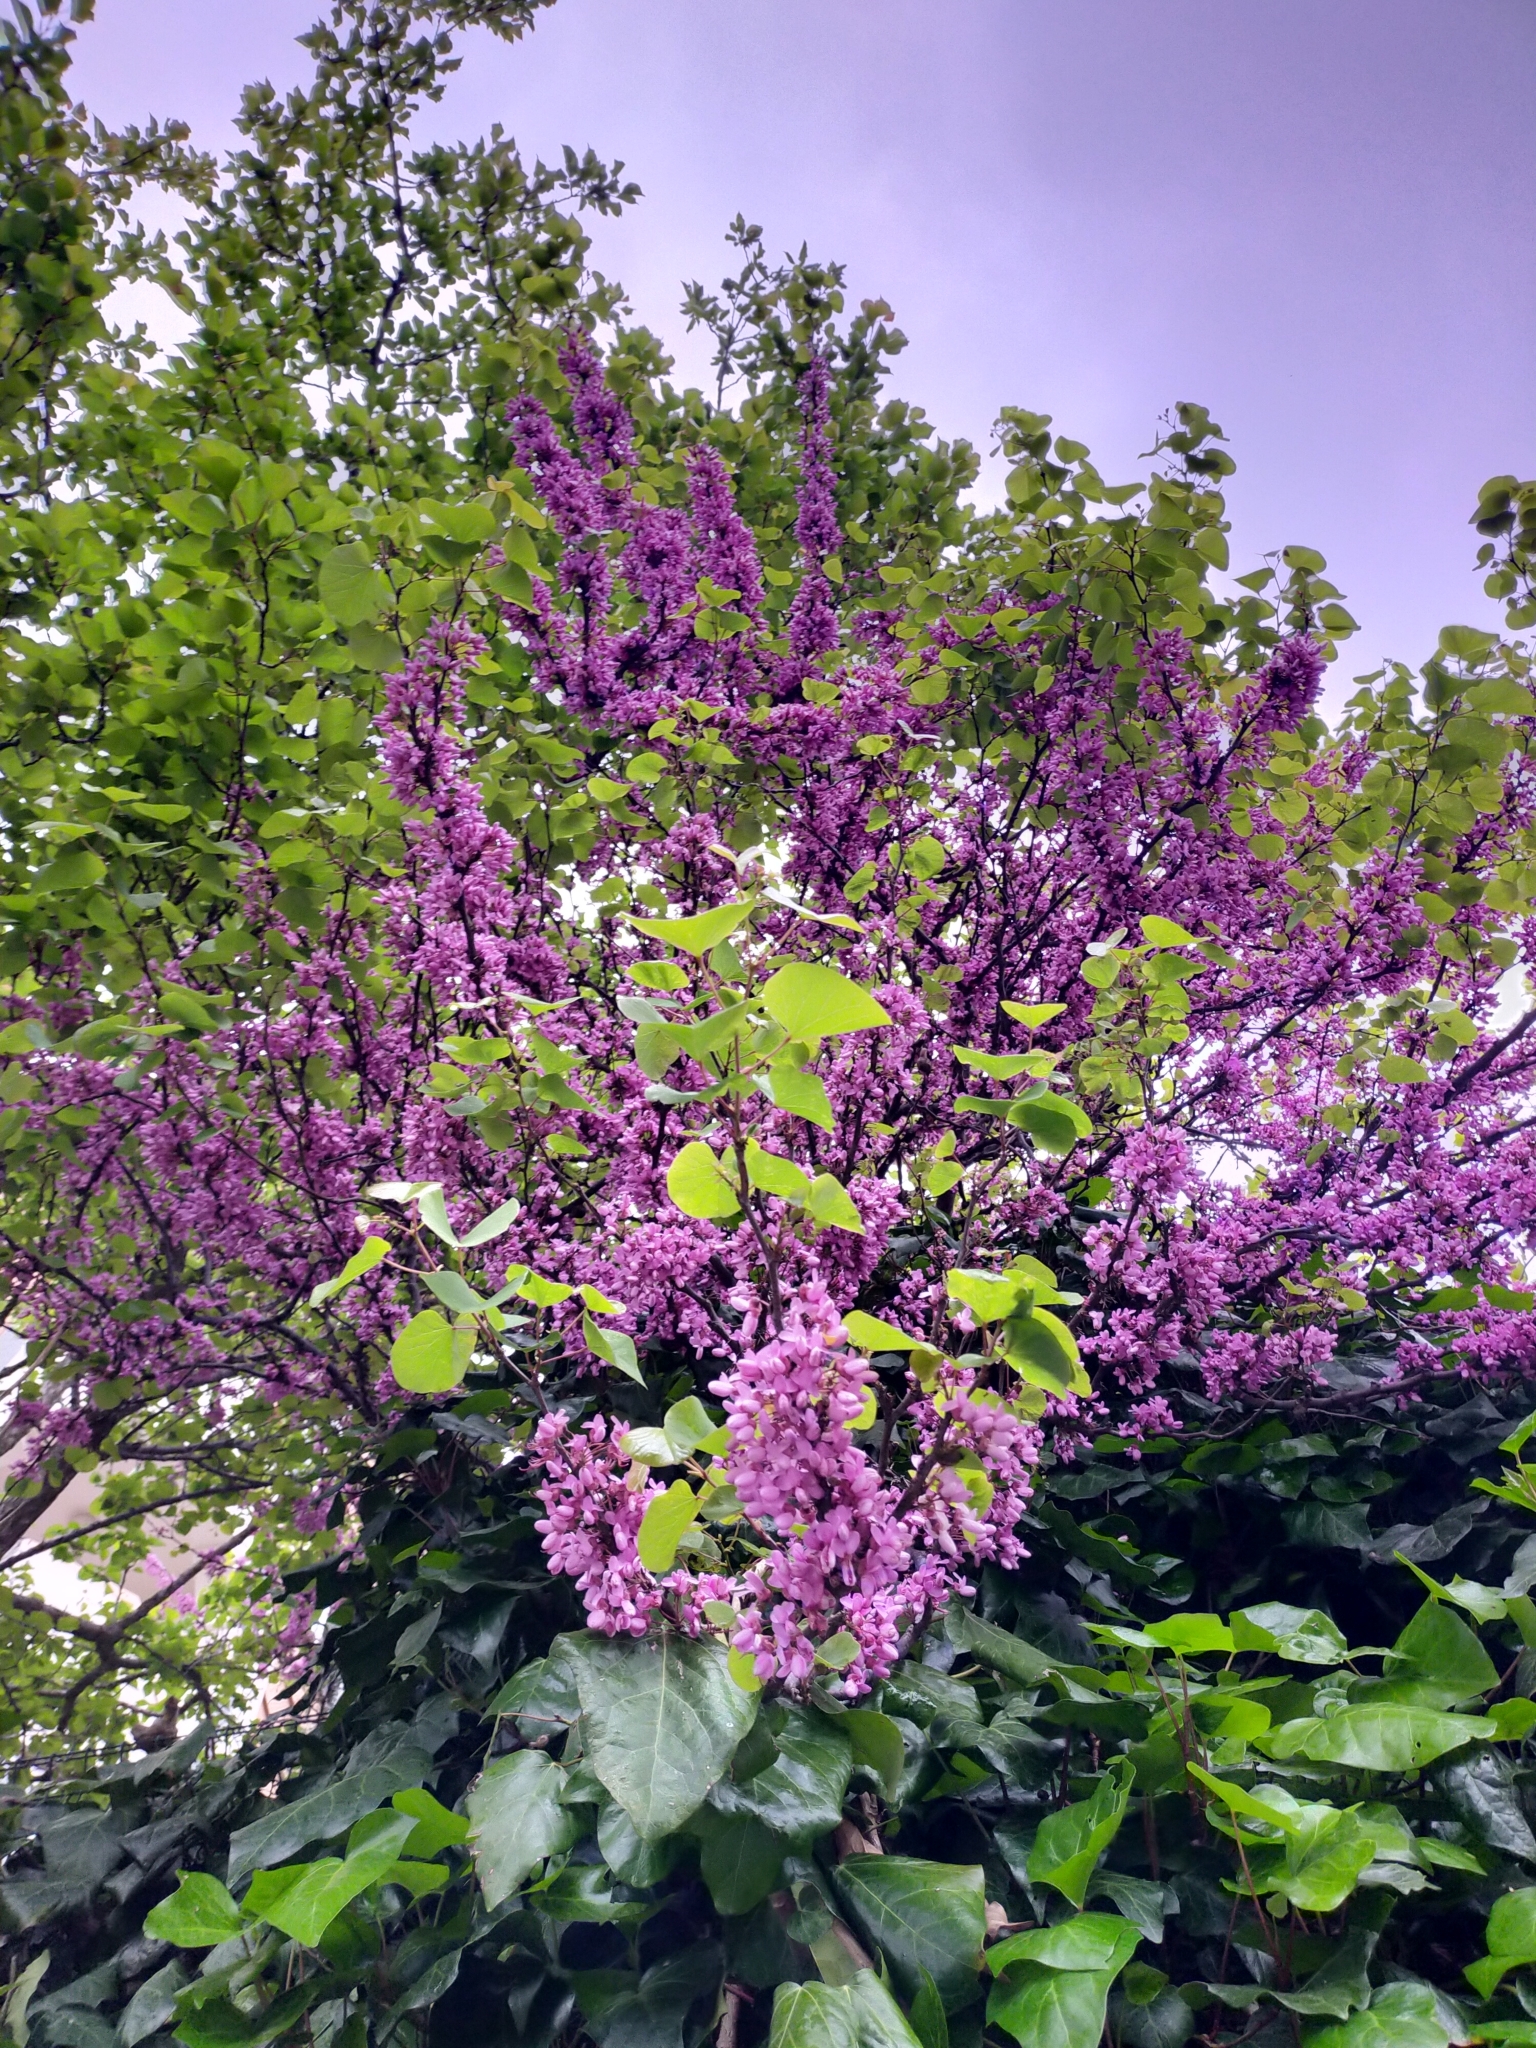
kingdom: Plantae
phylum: Tracheophyta
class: Magnoliopsida
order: Fabales
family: Fabaceae
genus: Cercis
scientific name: Cercis siliquastrum
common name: Judas tree
